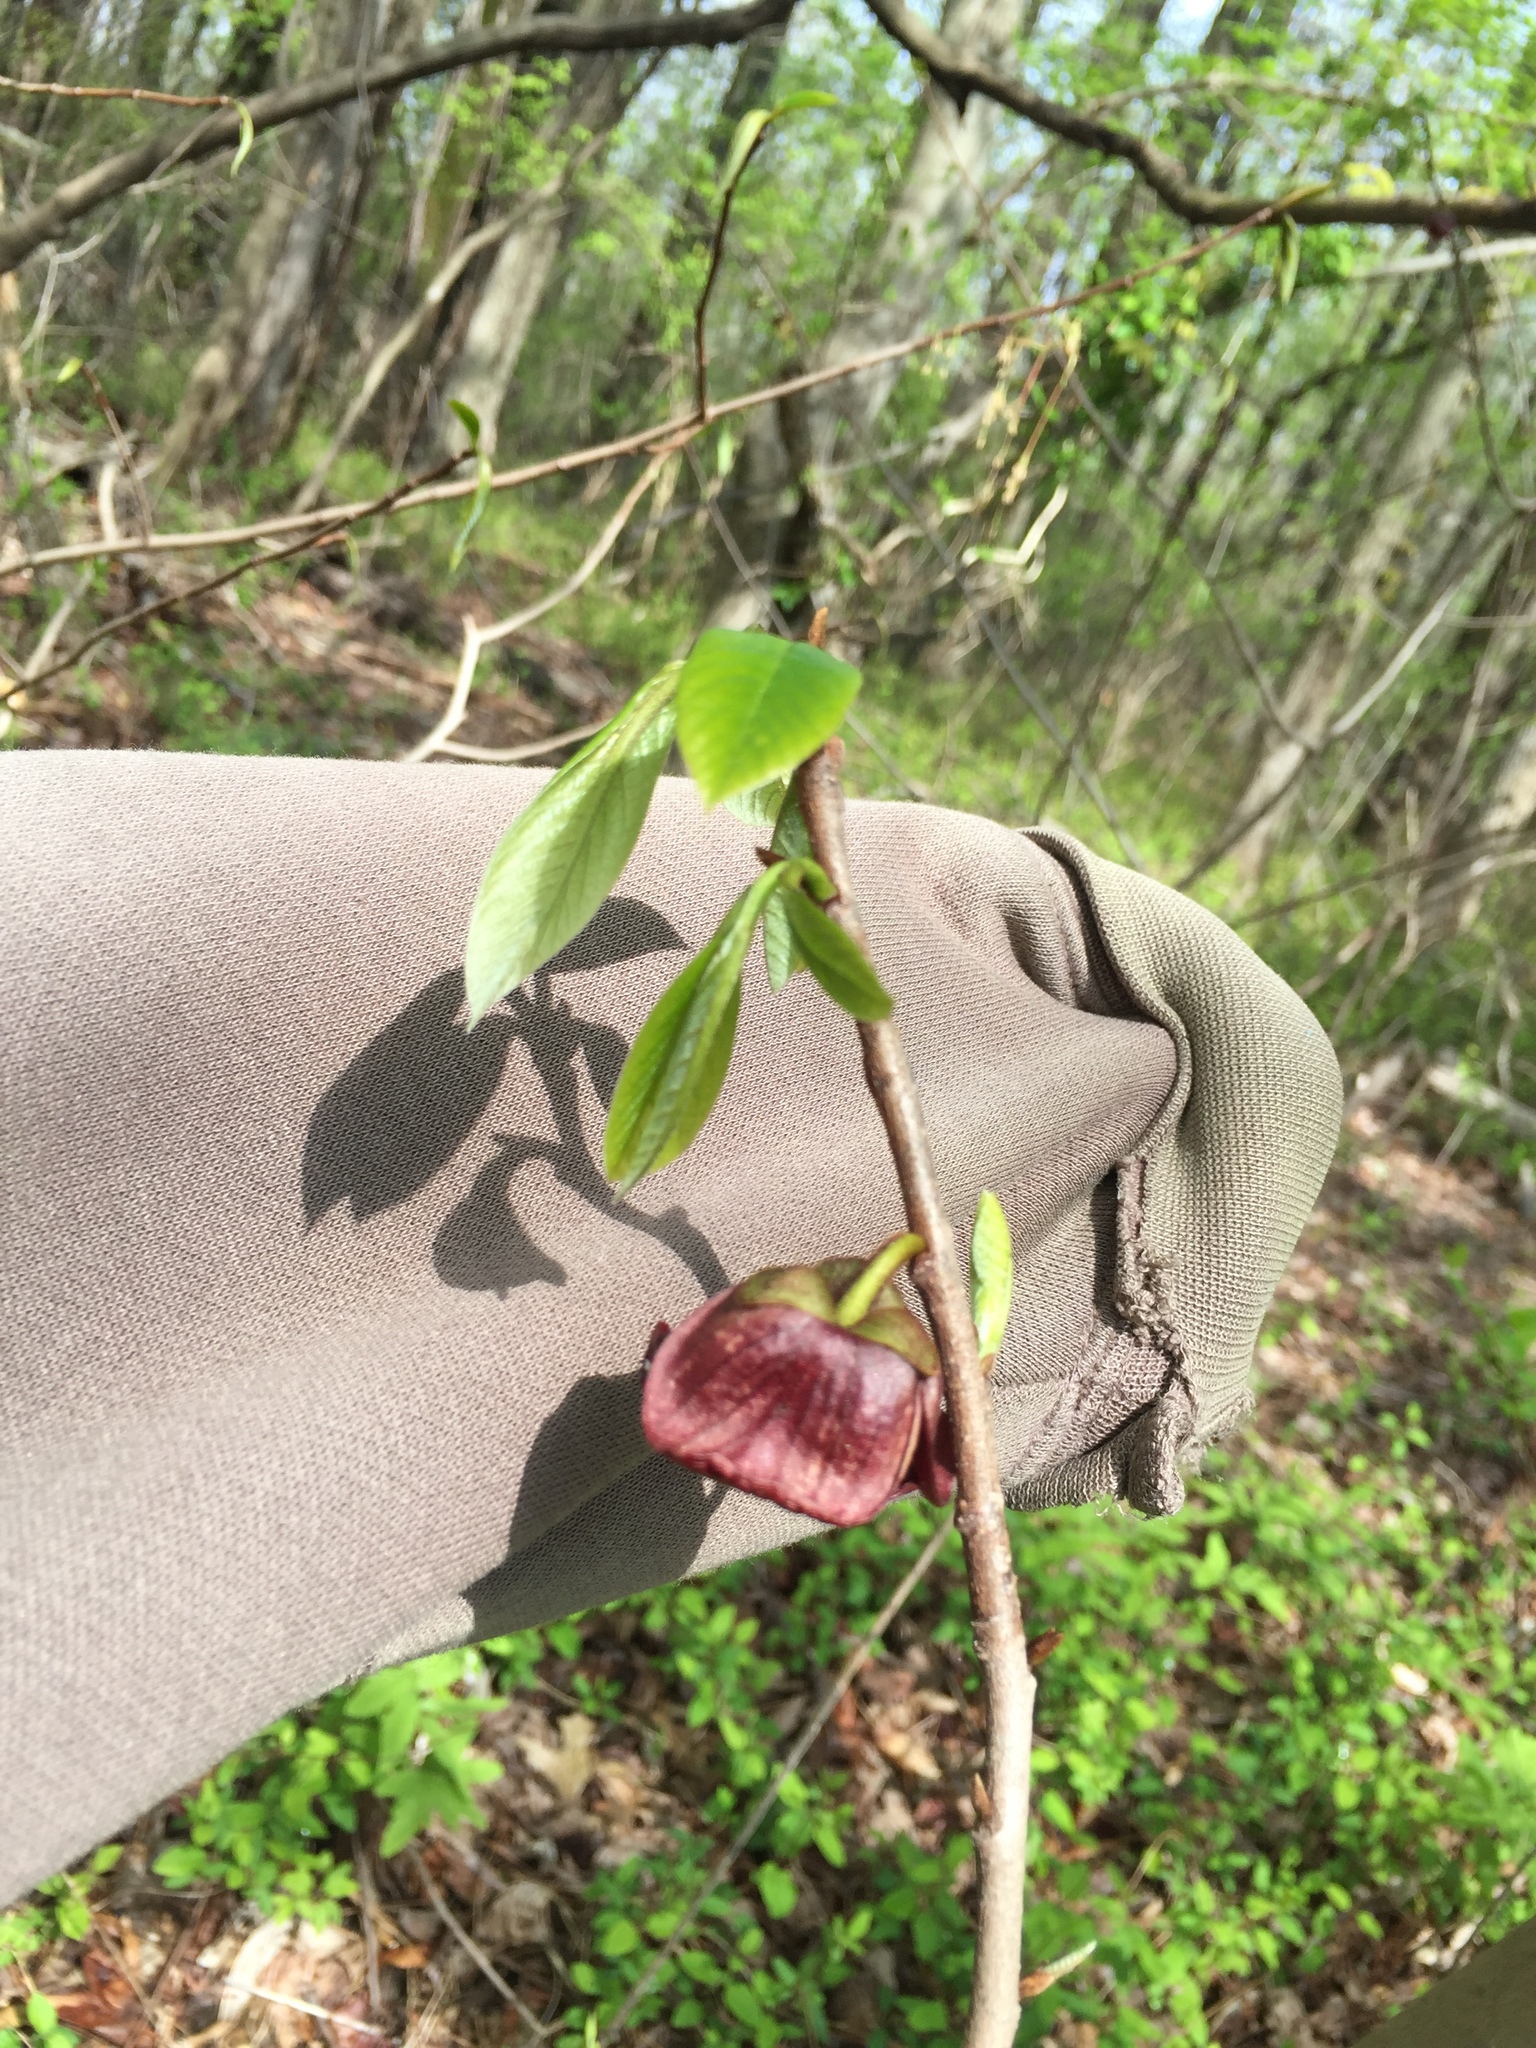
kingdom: Plantae
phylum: Tracheophyta
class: Magnoliopsida
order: Magnoliales
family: Annonaceae
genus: Asimina
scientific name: Asimina triloba
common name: Dog-banana
